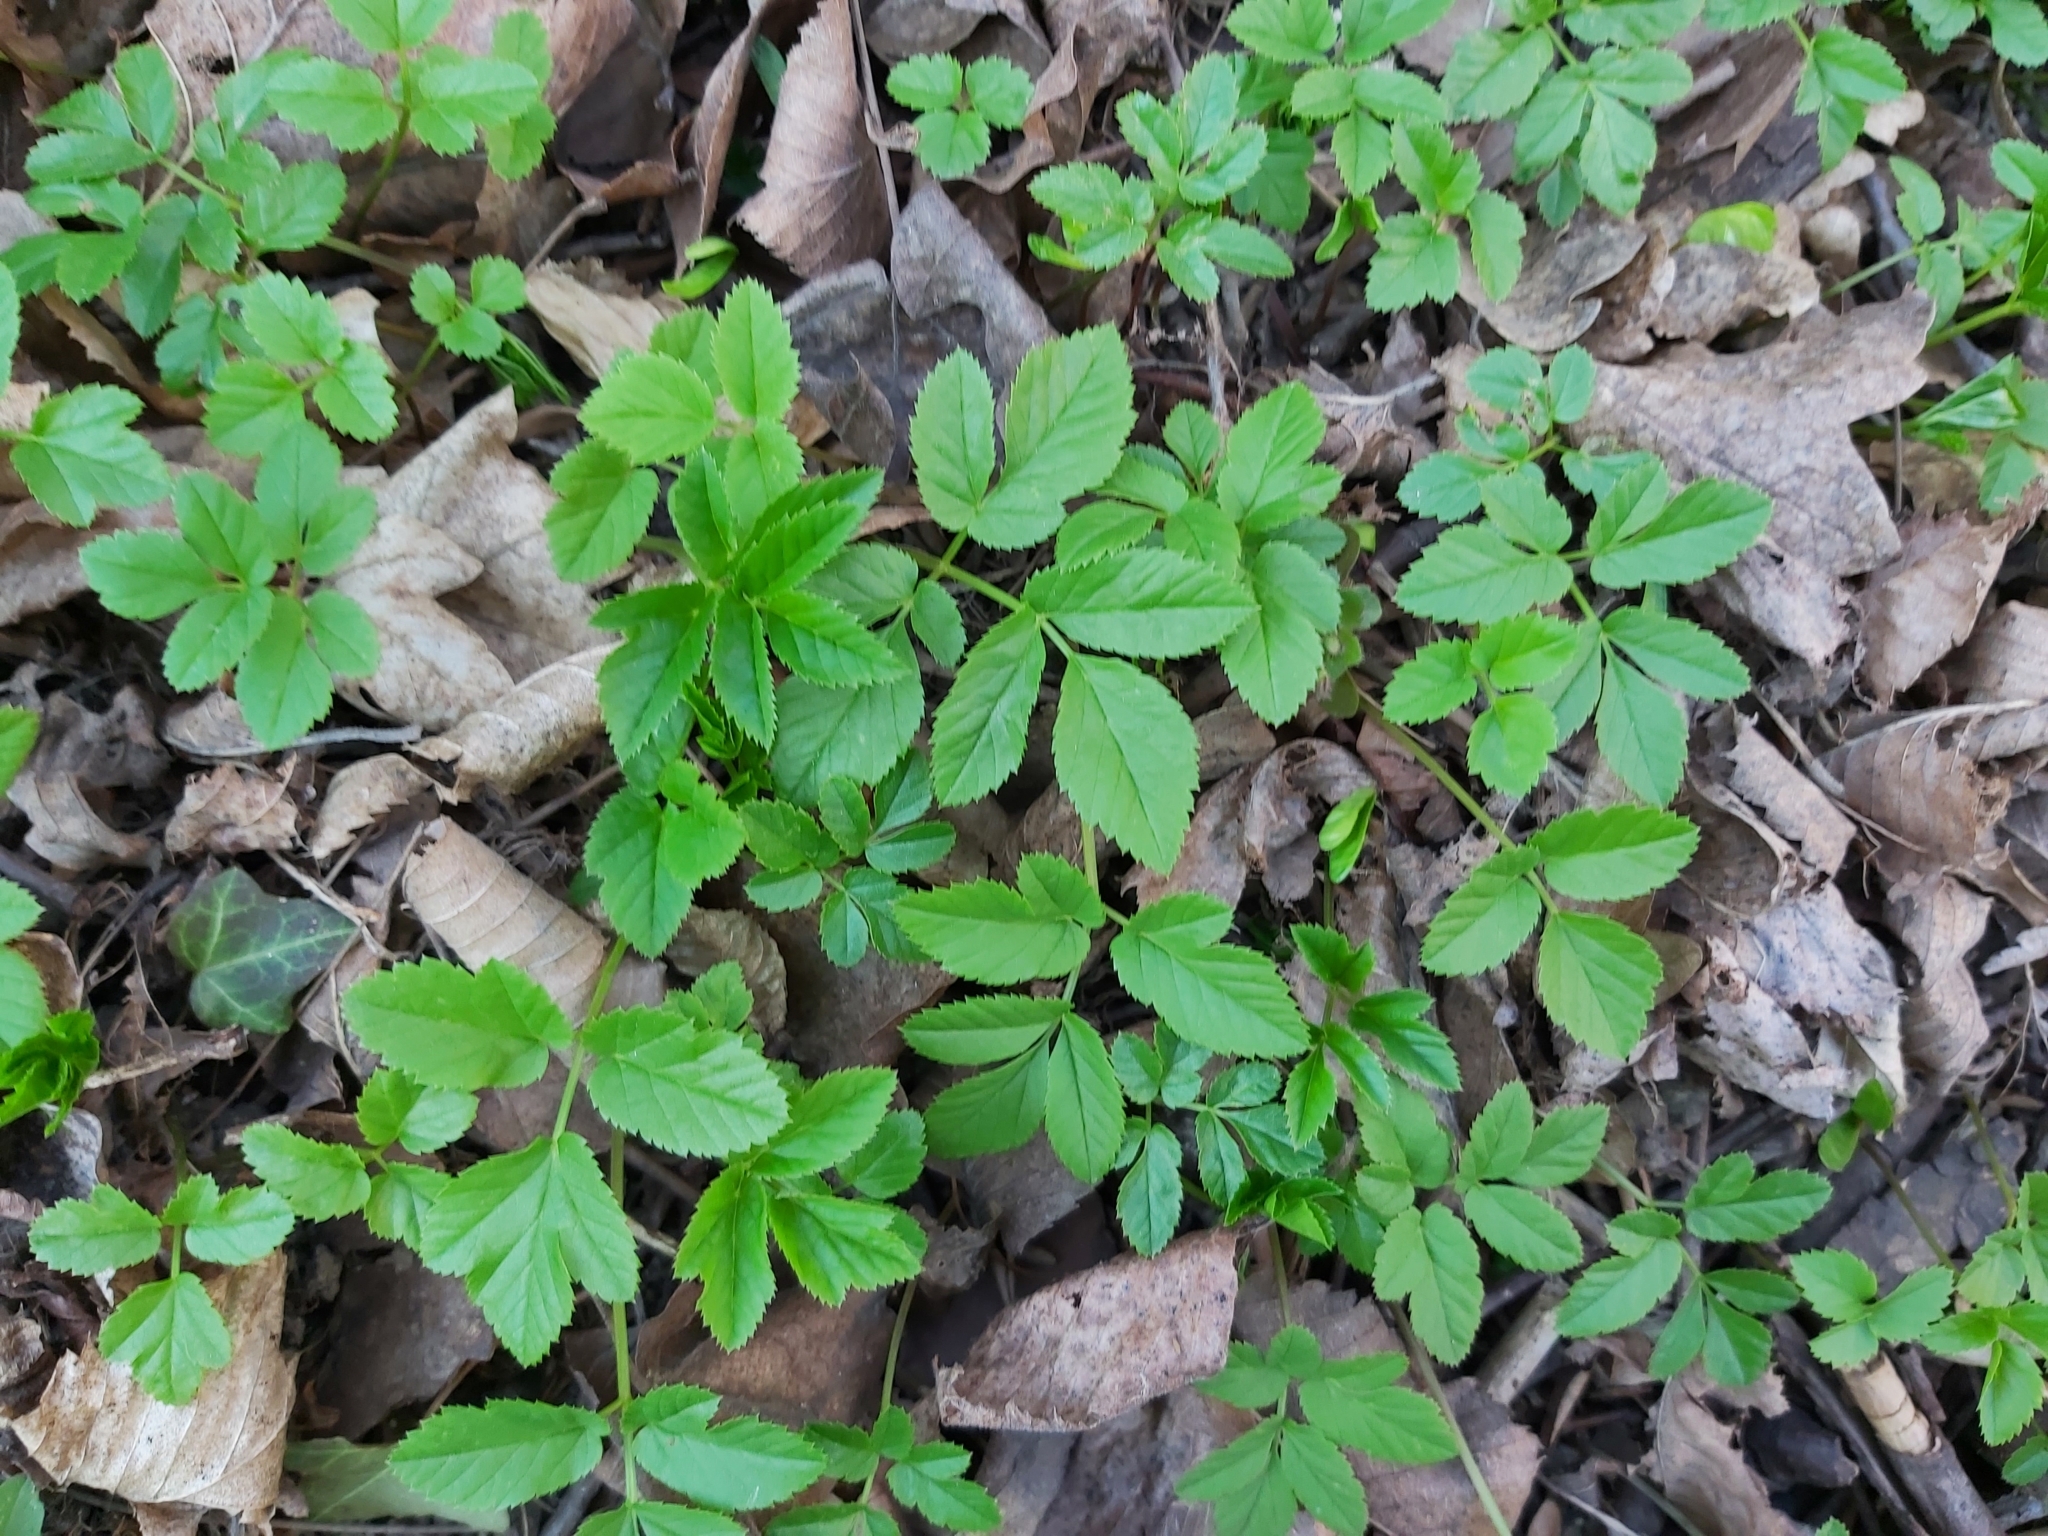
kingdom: Plantae
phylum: Tracheophyta
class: Magnoliopsida
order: Apiales
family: Apiaceae
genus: Aegopodium
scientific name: Aegopodium podagraria
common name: Ground-elder
